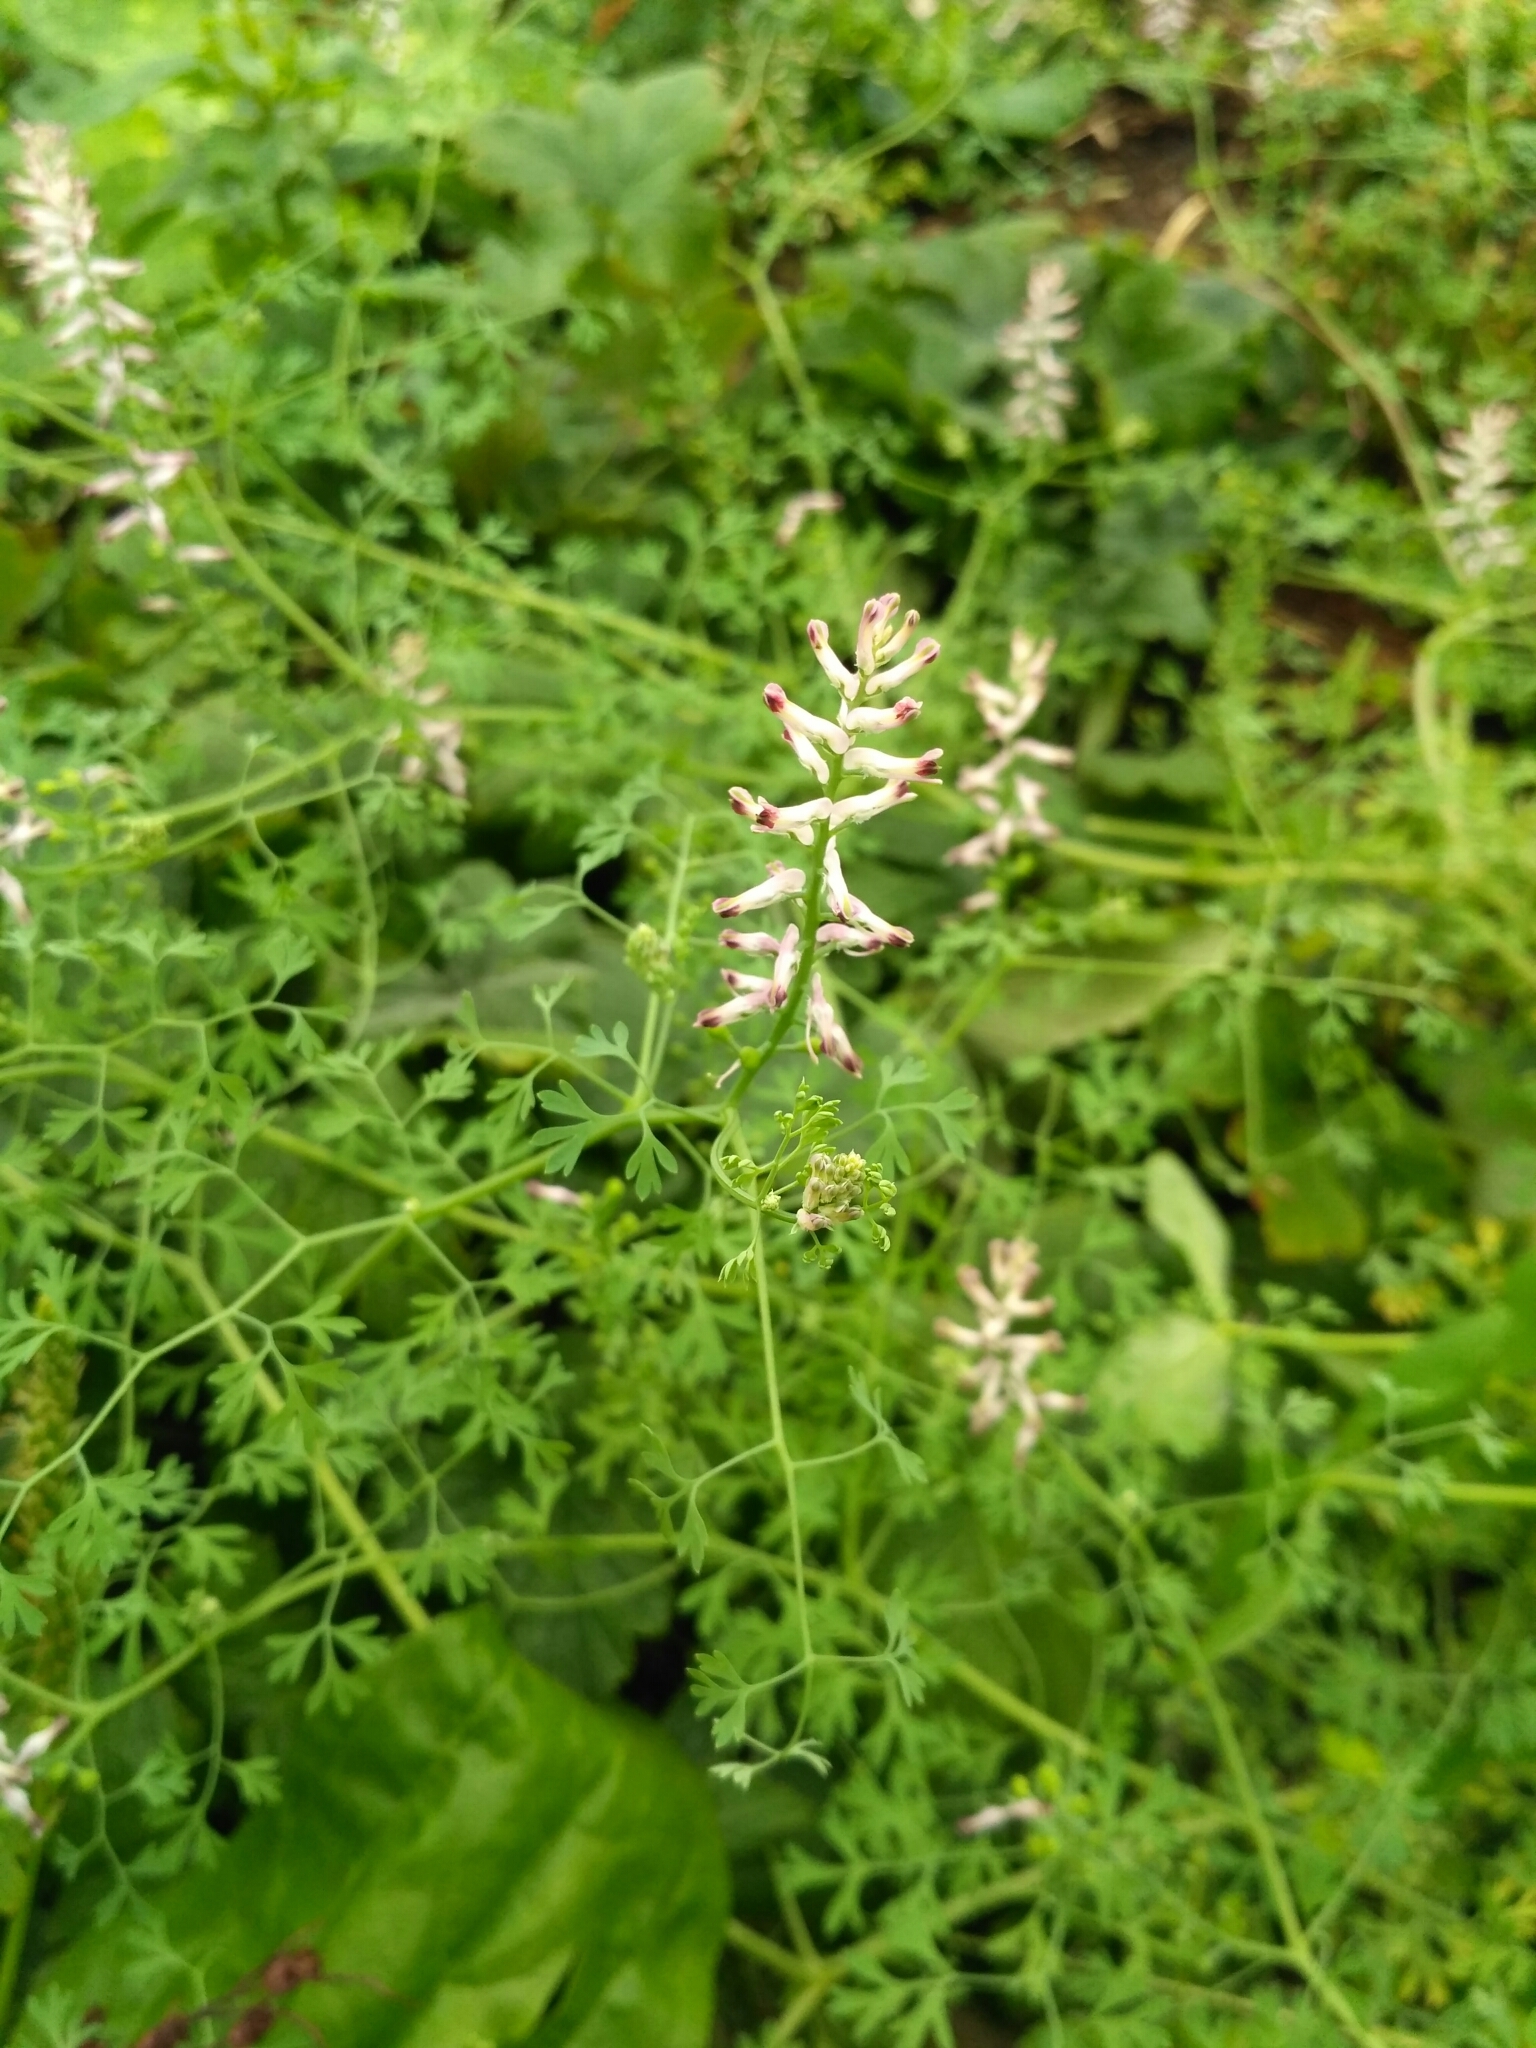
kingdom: Plantae
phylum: Tracheophyta
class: Magnoliopsida
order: Ranunculales
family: Papaveraceae
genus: Fumaria
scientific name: Fumaria officinalis
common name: Common fumitory
